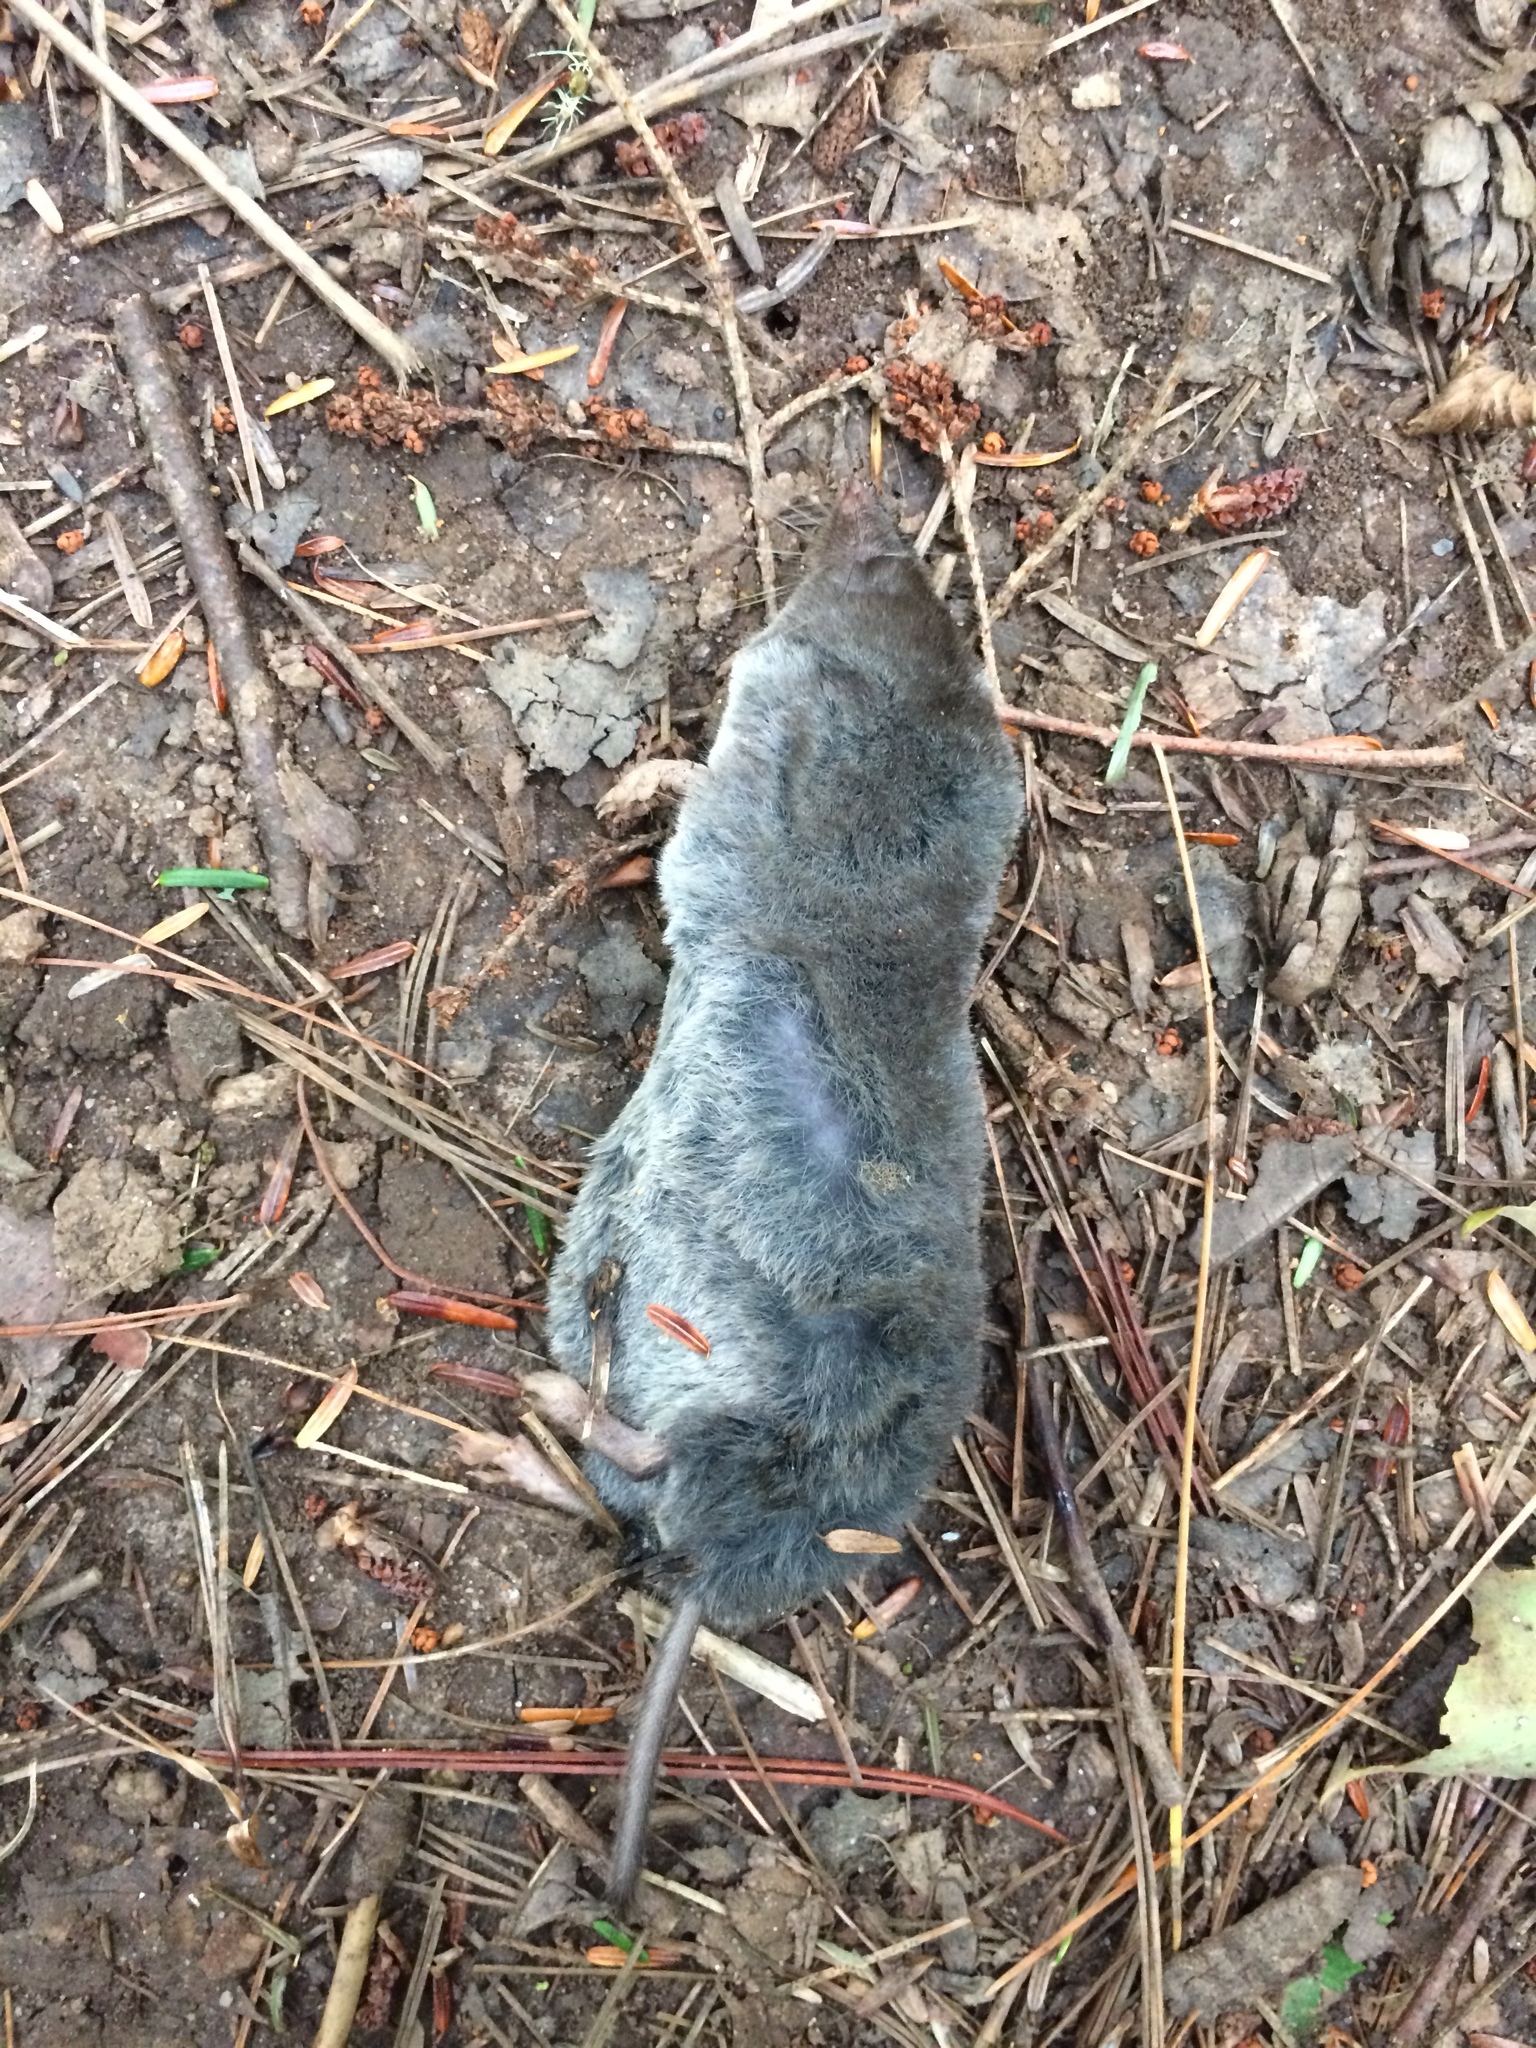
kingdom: Animalia
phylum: Chordata
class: Mammalia
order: Soricomorpha
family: Soricidae
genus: Blarina
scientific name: Blarina brevicauda
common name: Northern short-tailed shrew
